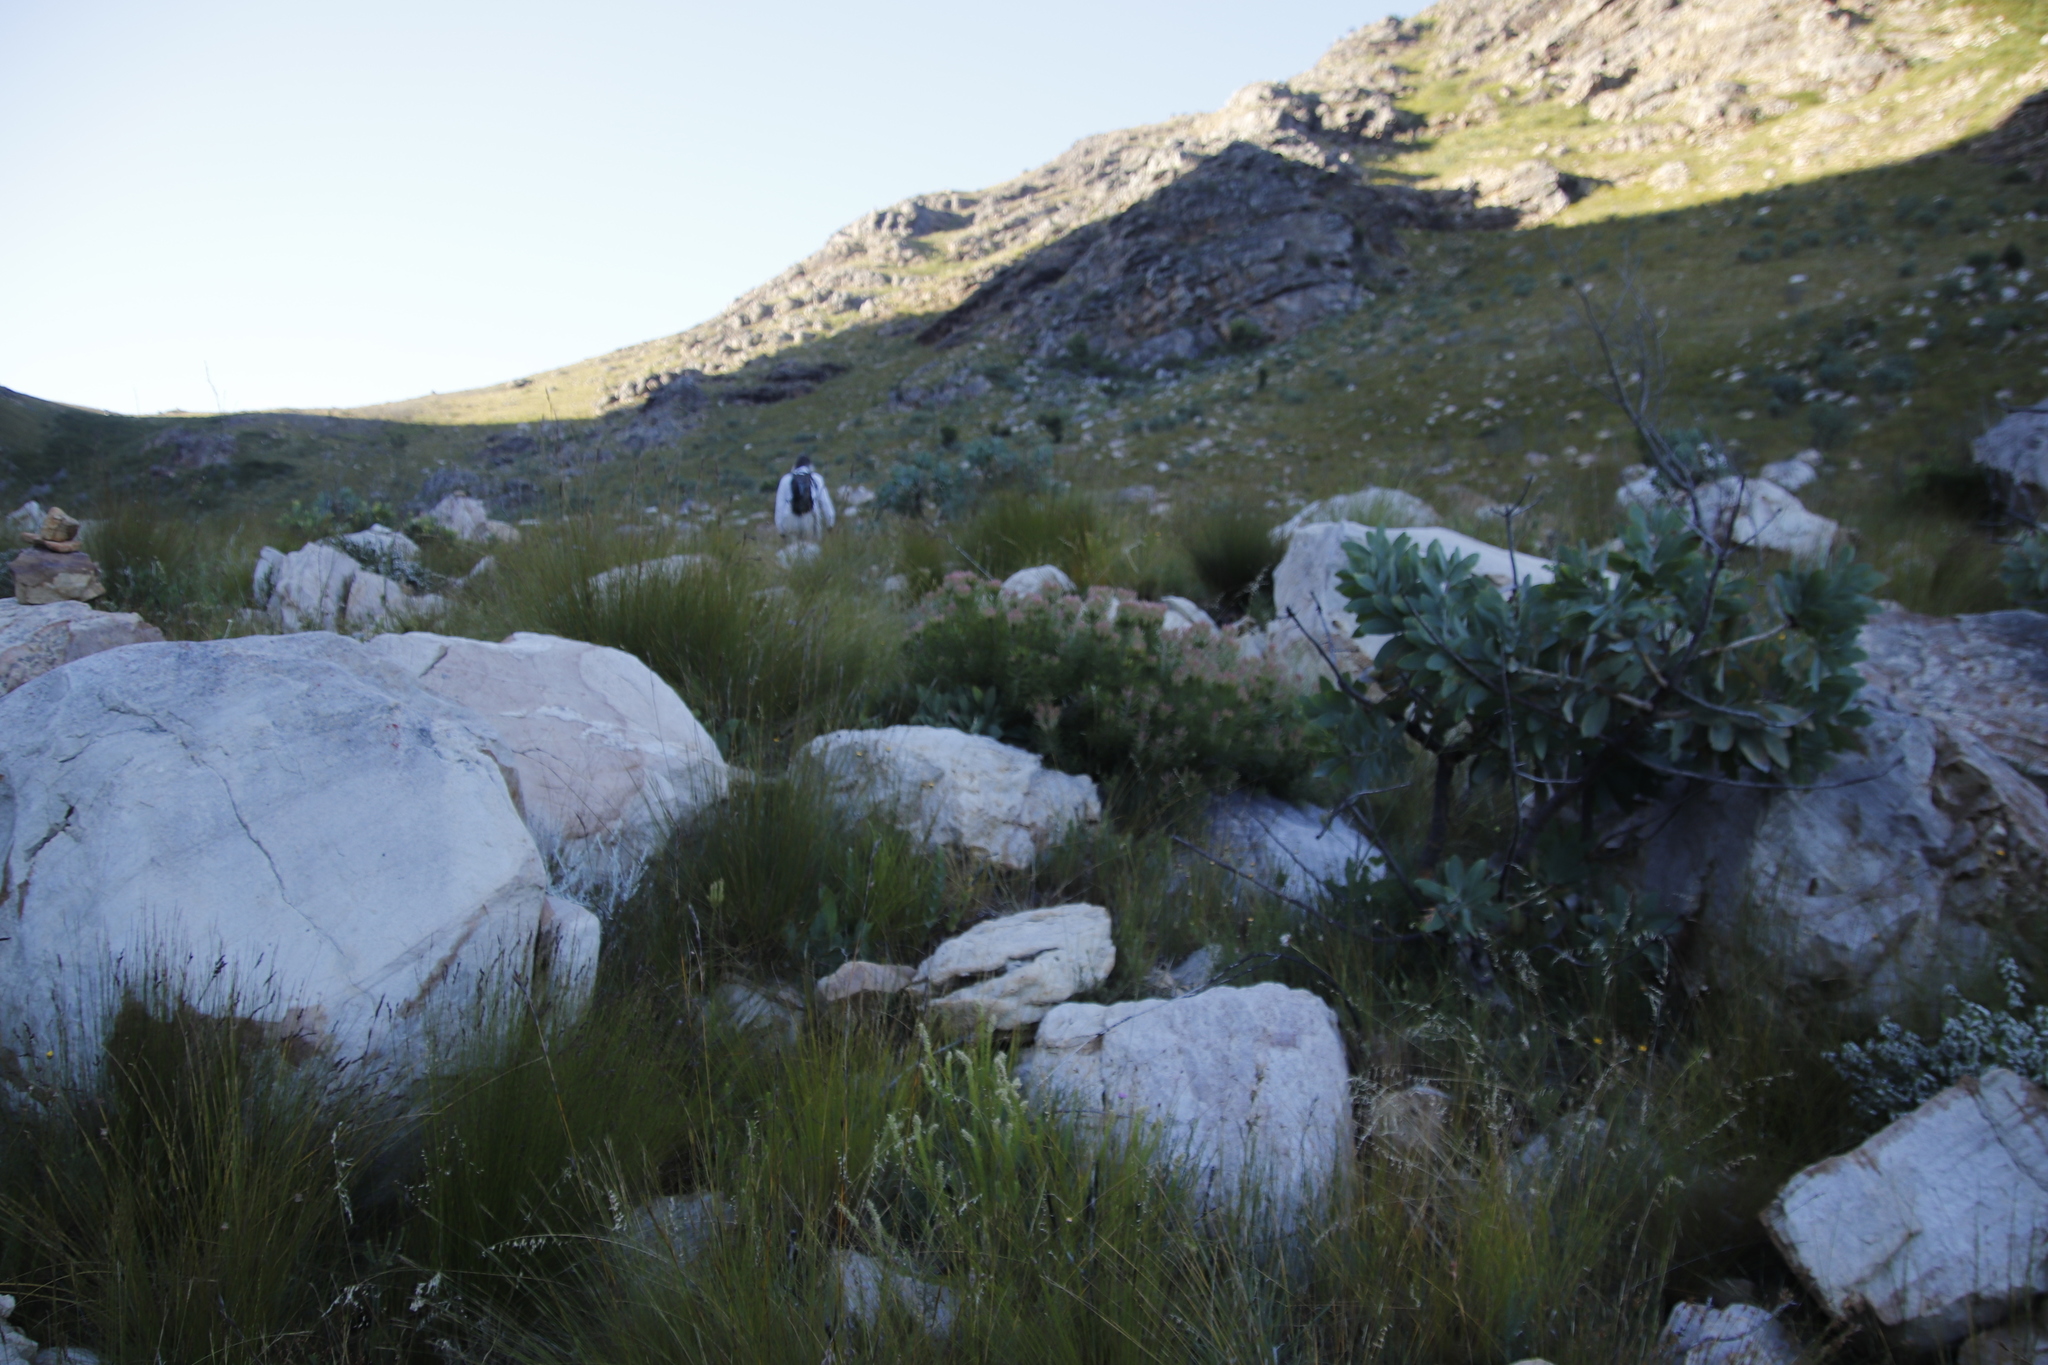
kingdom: Plantae
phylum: Tracheophyta
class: Magnoliopsida
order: Proteales
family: Proteaceae
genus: Leucadendron
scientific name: Leucadendron spissifolium
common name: Spear-leaf conebush
